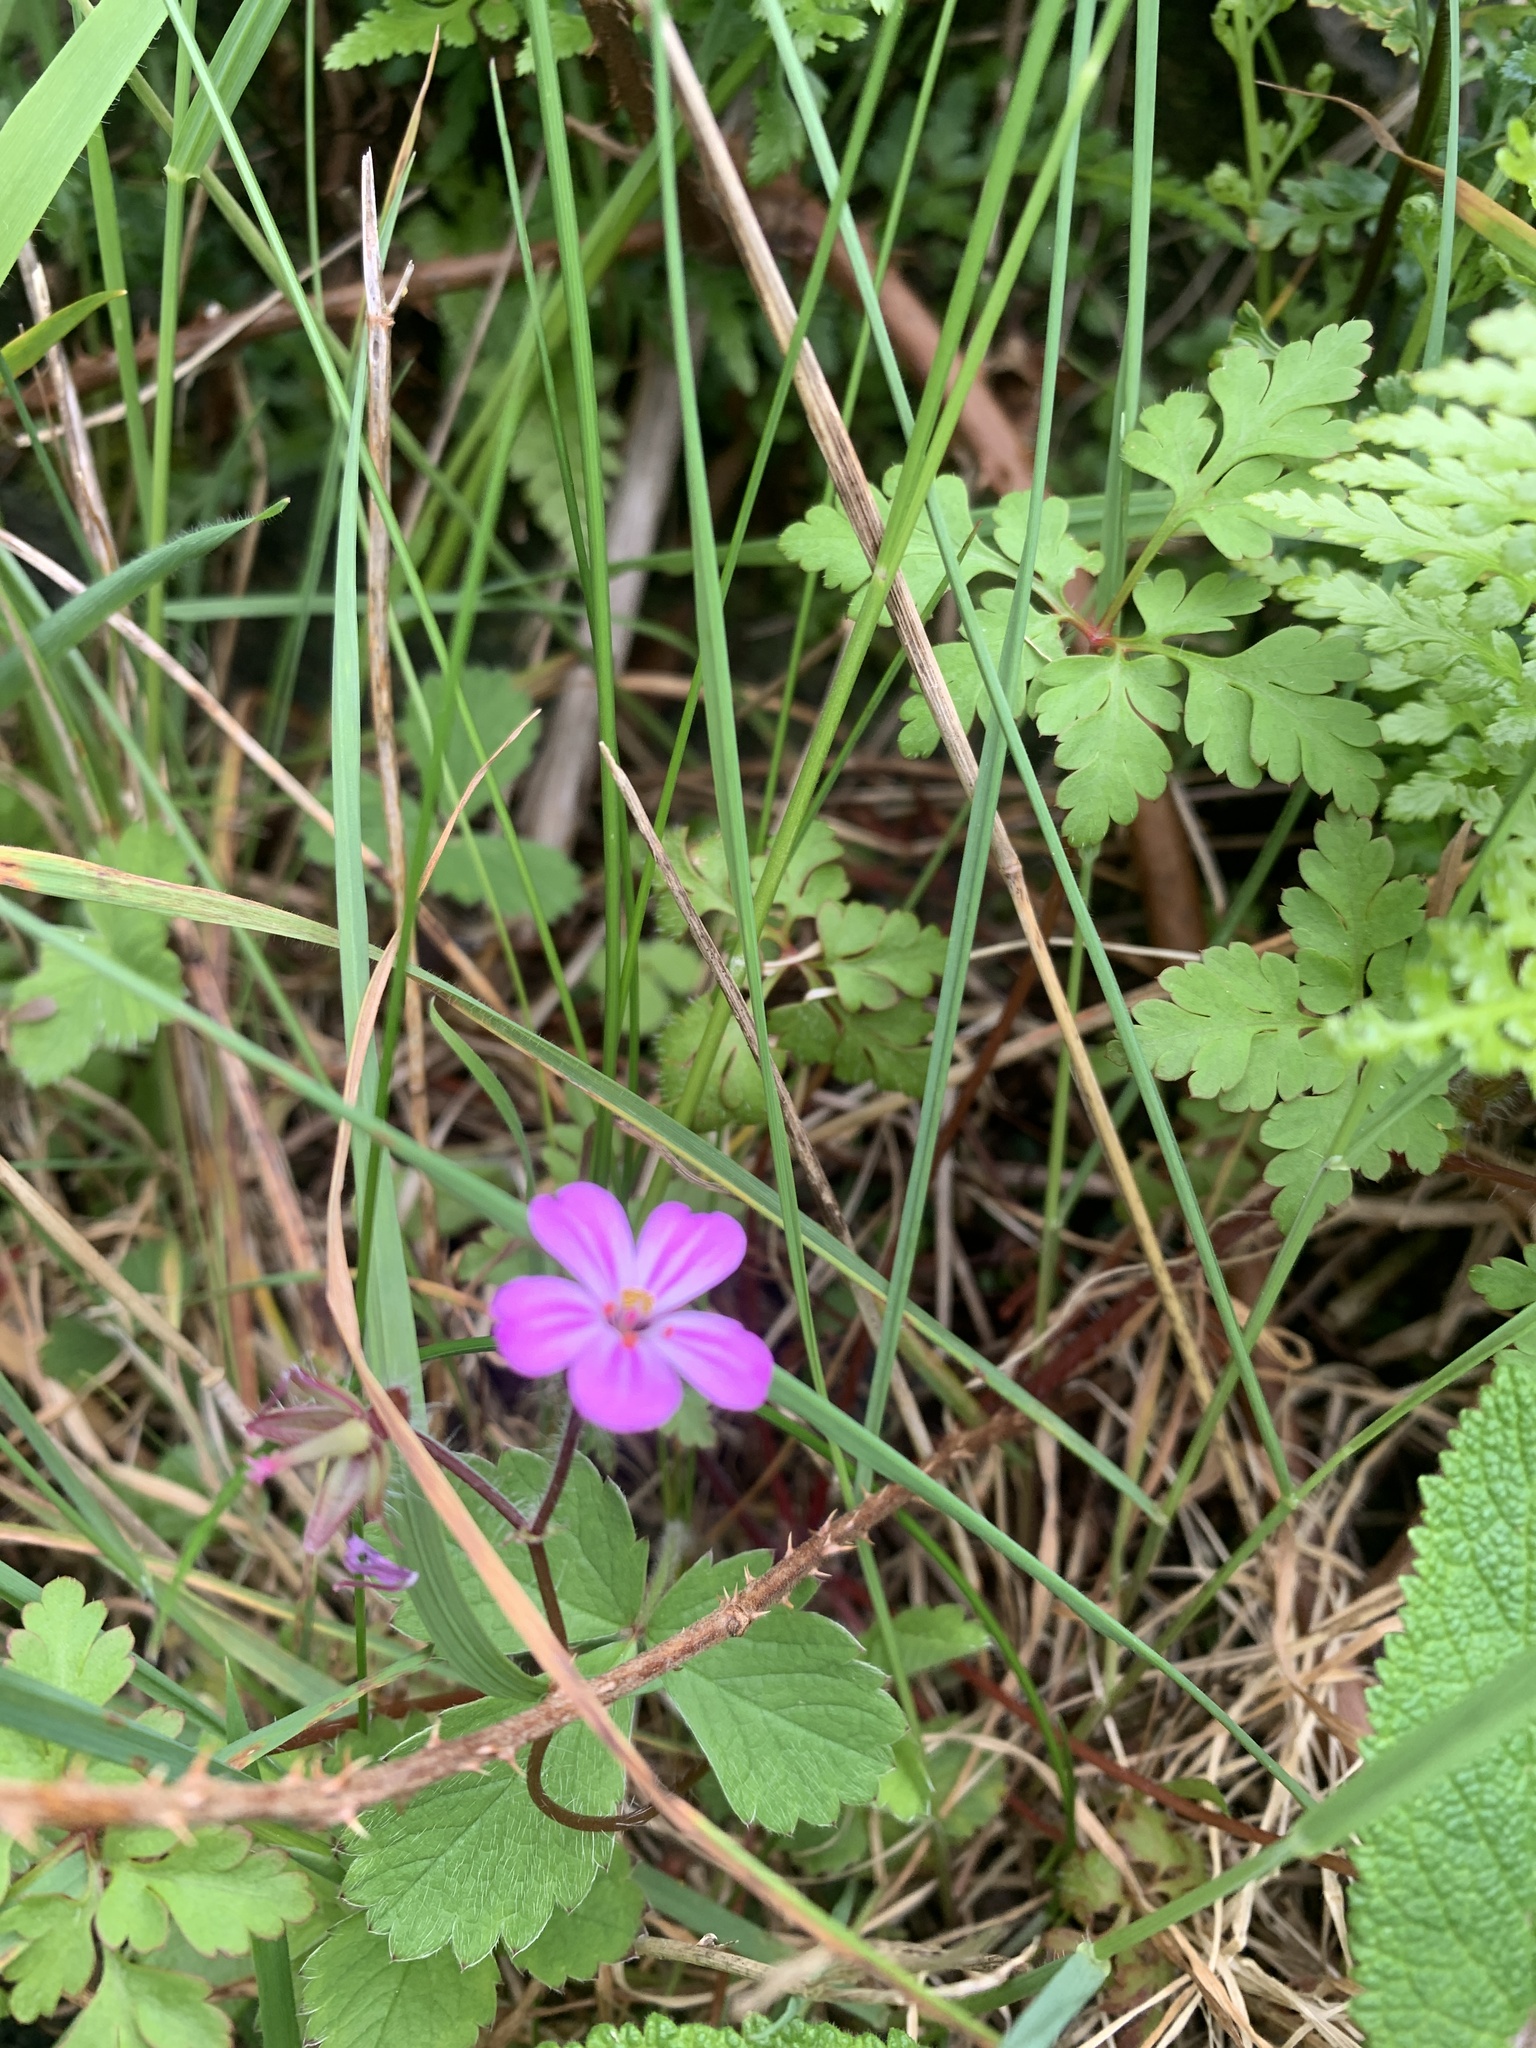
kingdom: Plantae
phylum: Tracheophyta
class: Magnoliopsida
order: Geraniales
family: Geraniaceae
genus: Geranium
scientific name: Geranium robertianum
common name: Herb-robert
